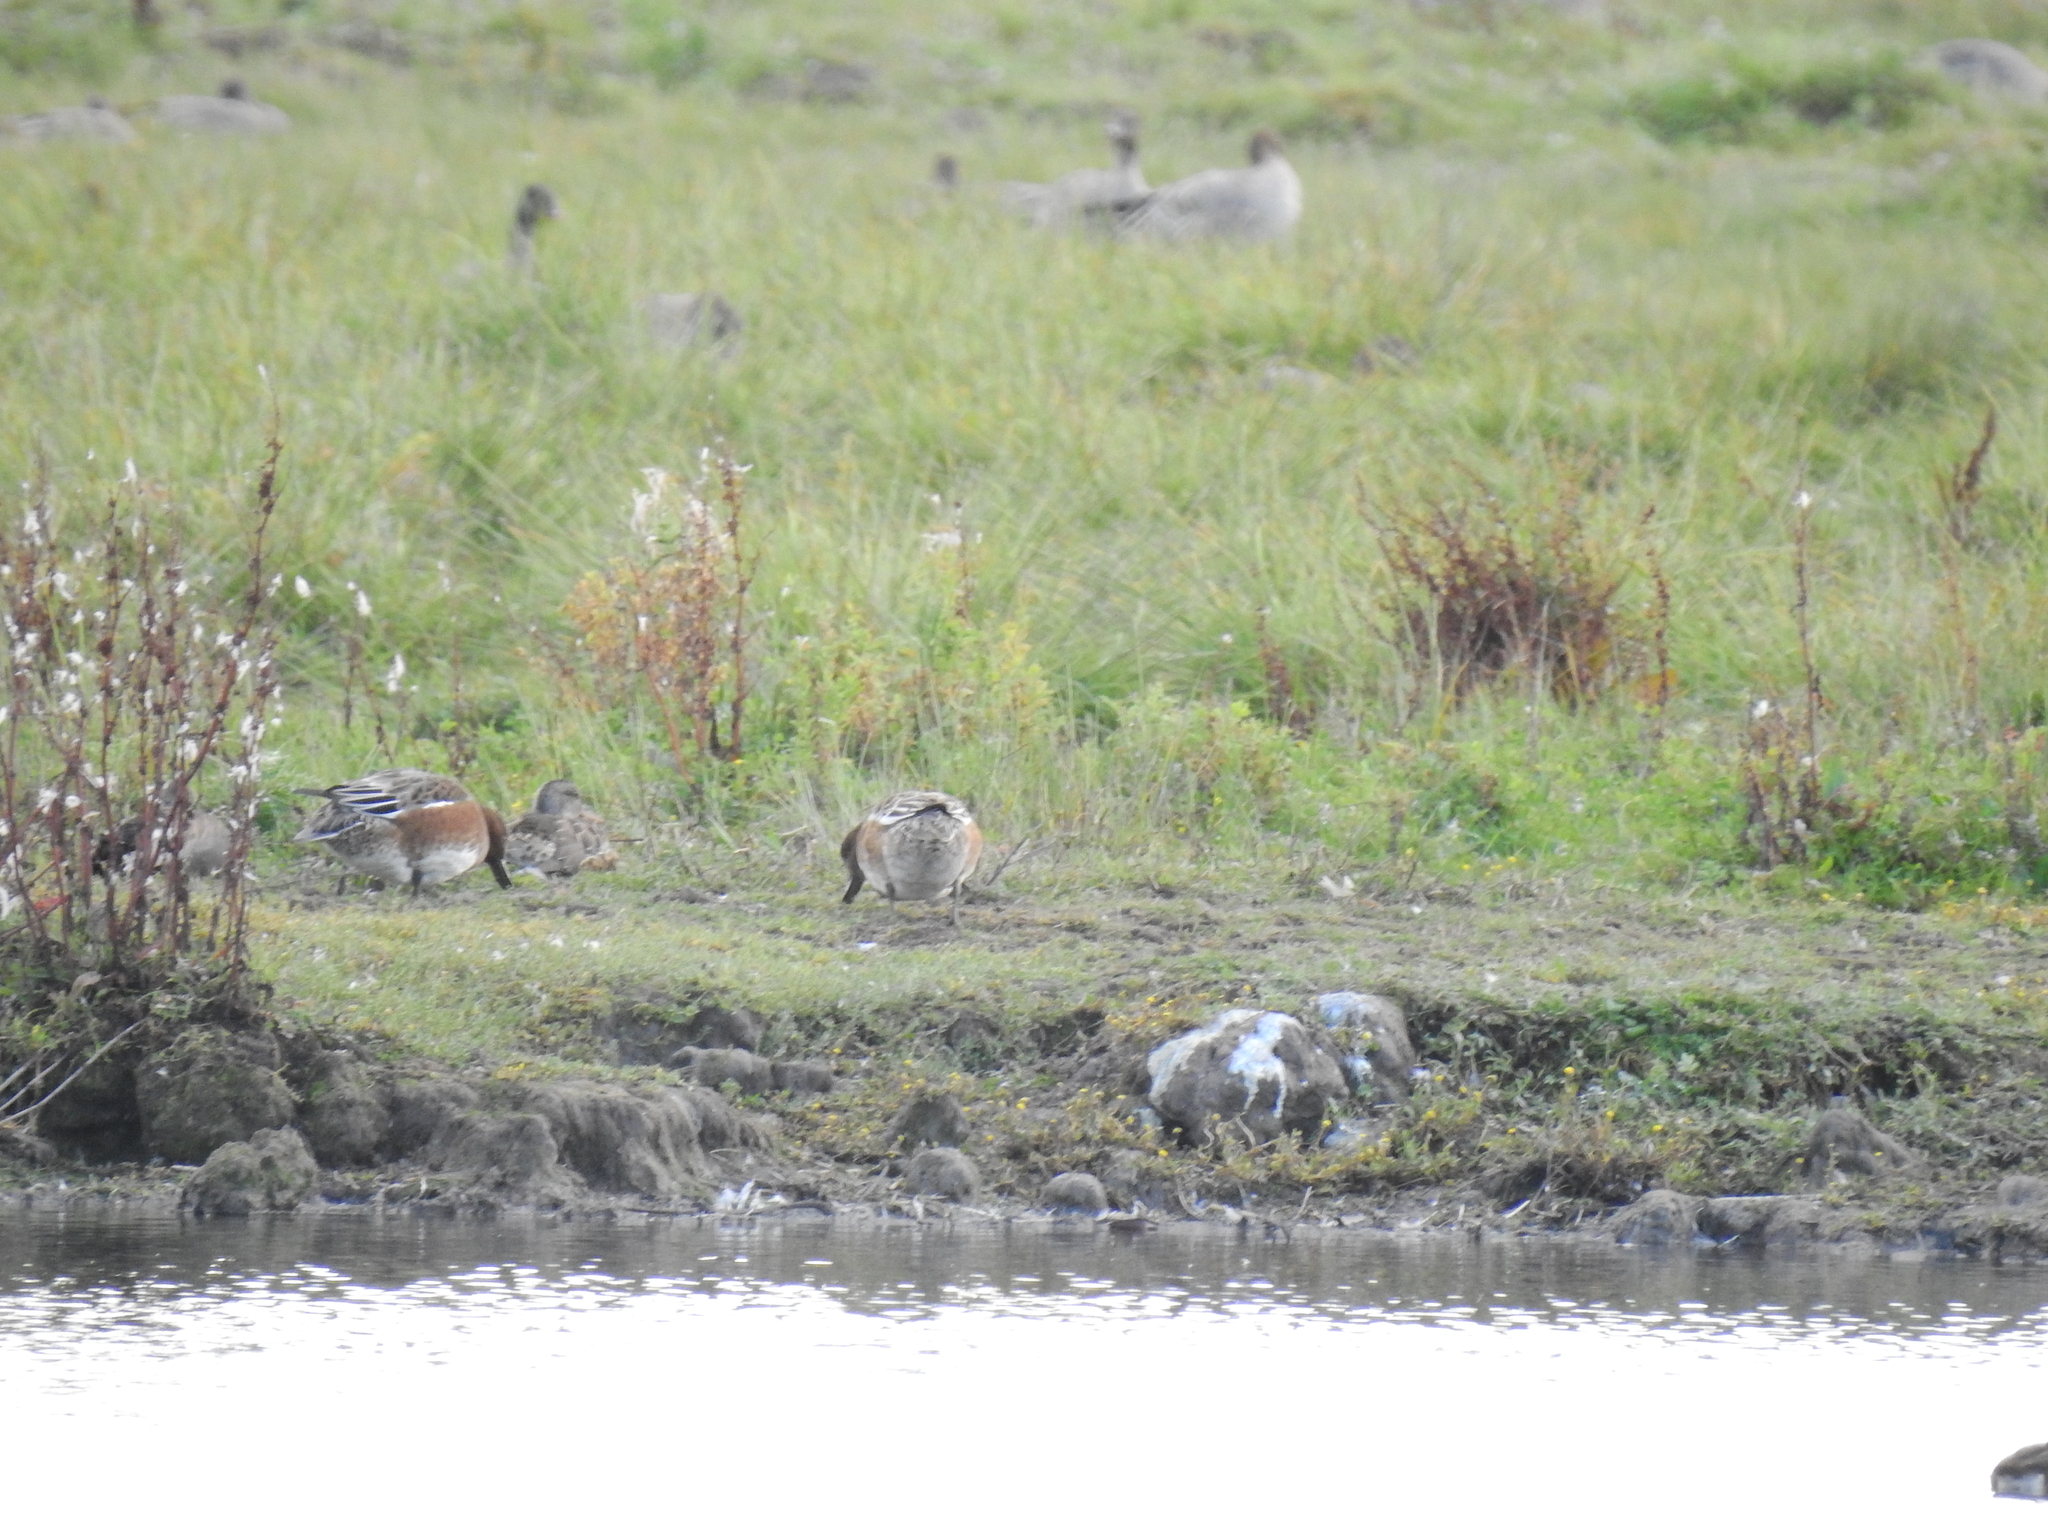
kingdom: Animalia
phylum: Chordata
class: Aves
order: Anseriformes
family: Anatidae
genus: Mareca
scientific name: Mareca penelope
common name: Eurasian wigeon
